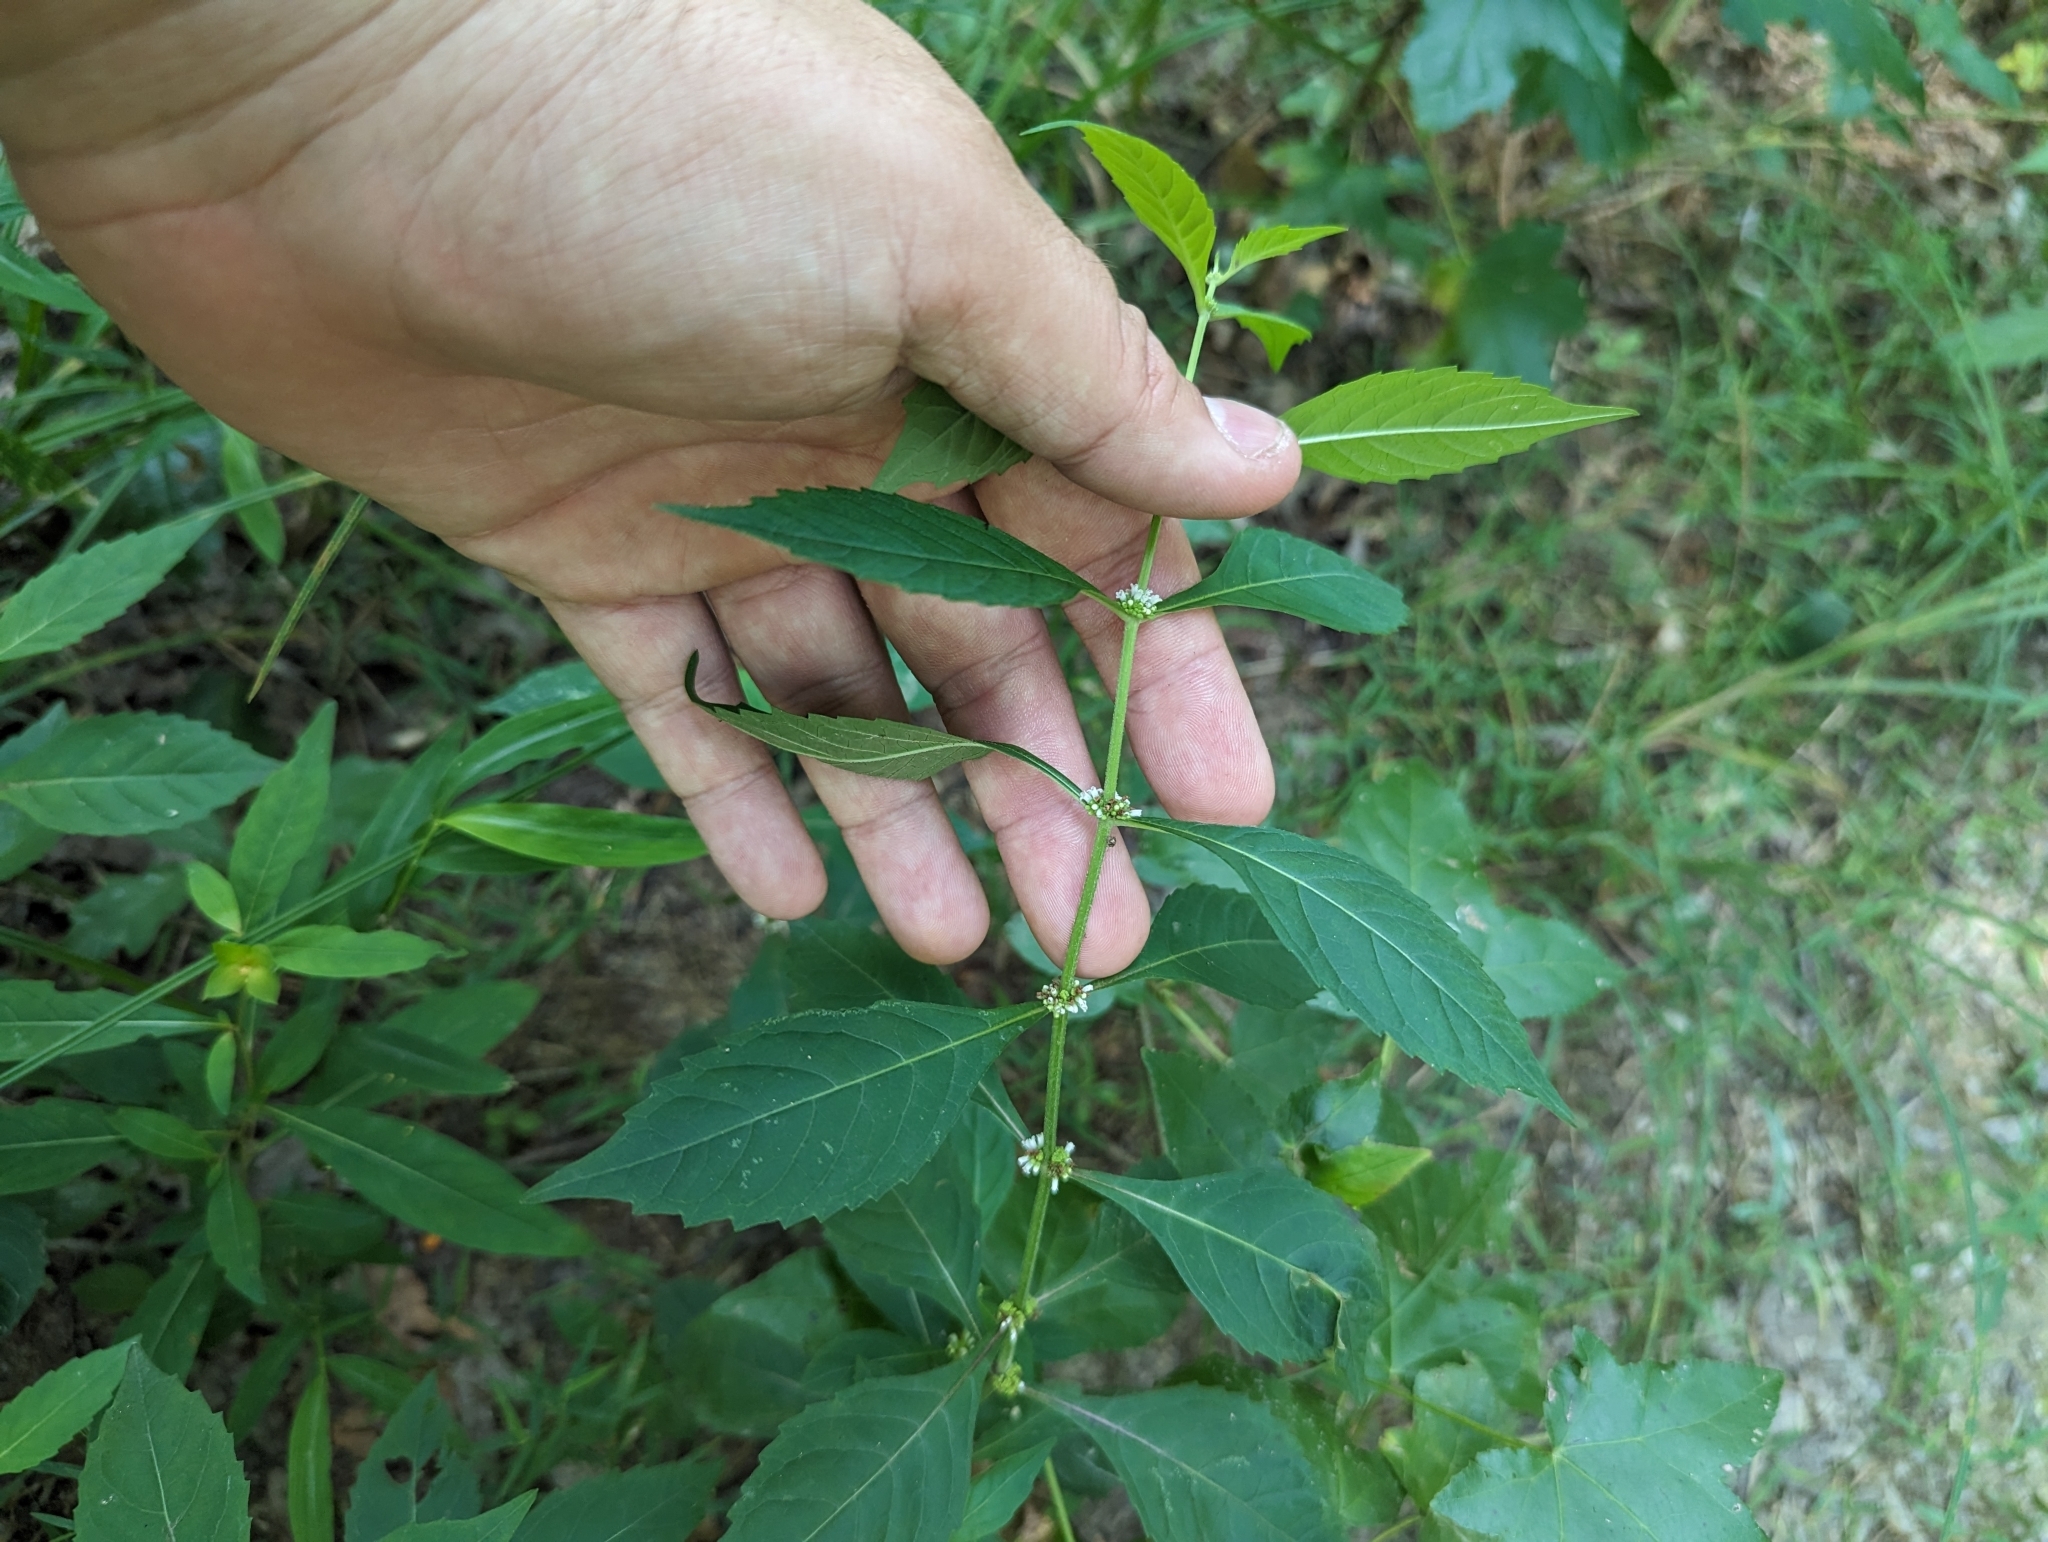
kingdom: Plantae
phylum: Tracheophyta
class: Magnoliopsida
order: Lamiales
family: Lamiaceae
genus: Lycopus
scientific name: Lycopus virginicus
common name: Bugleweed
